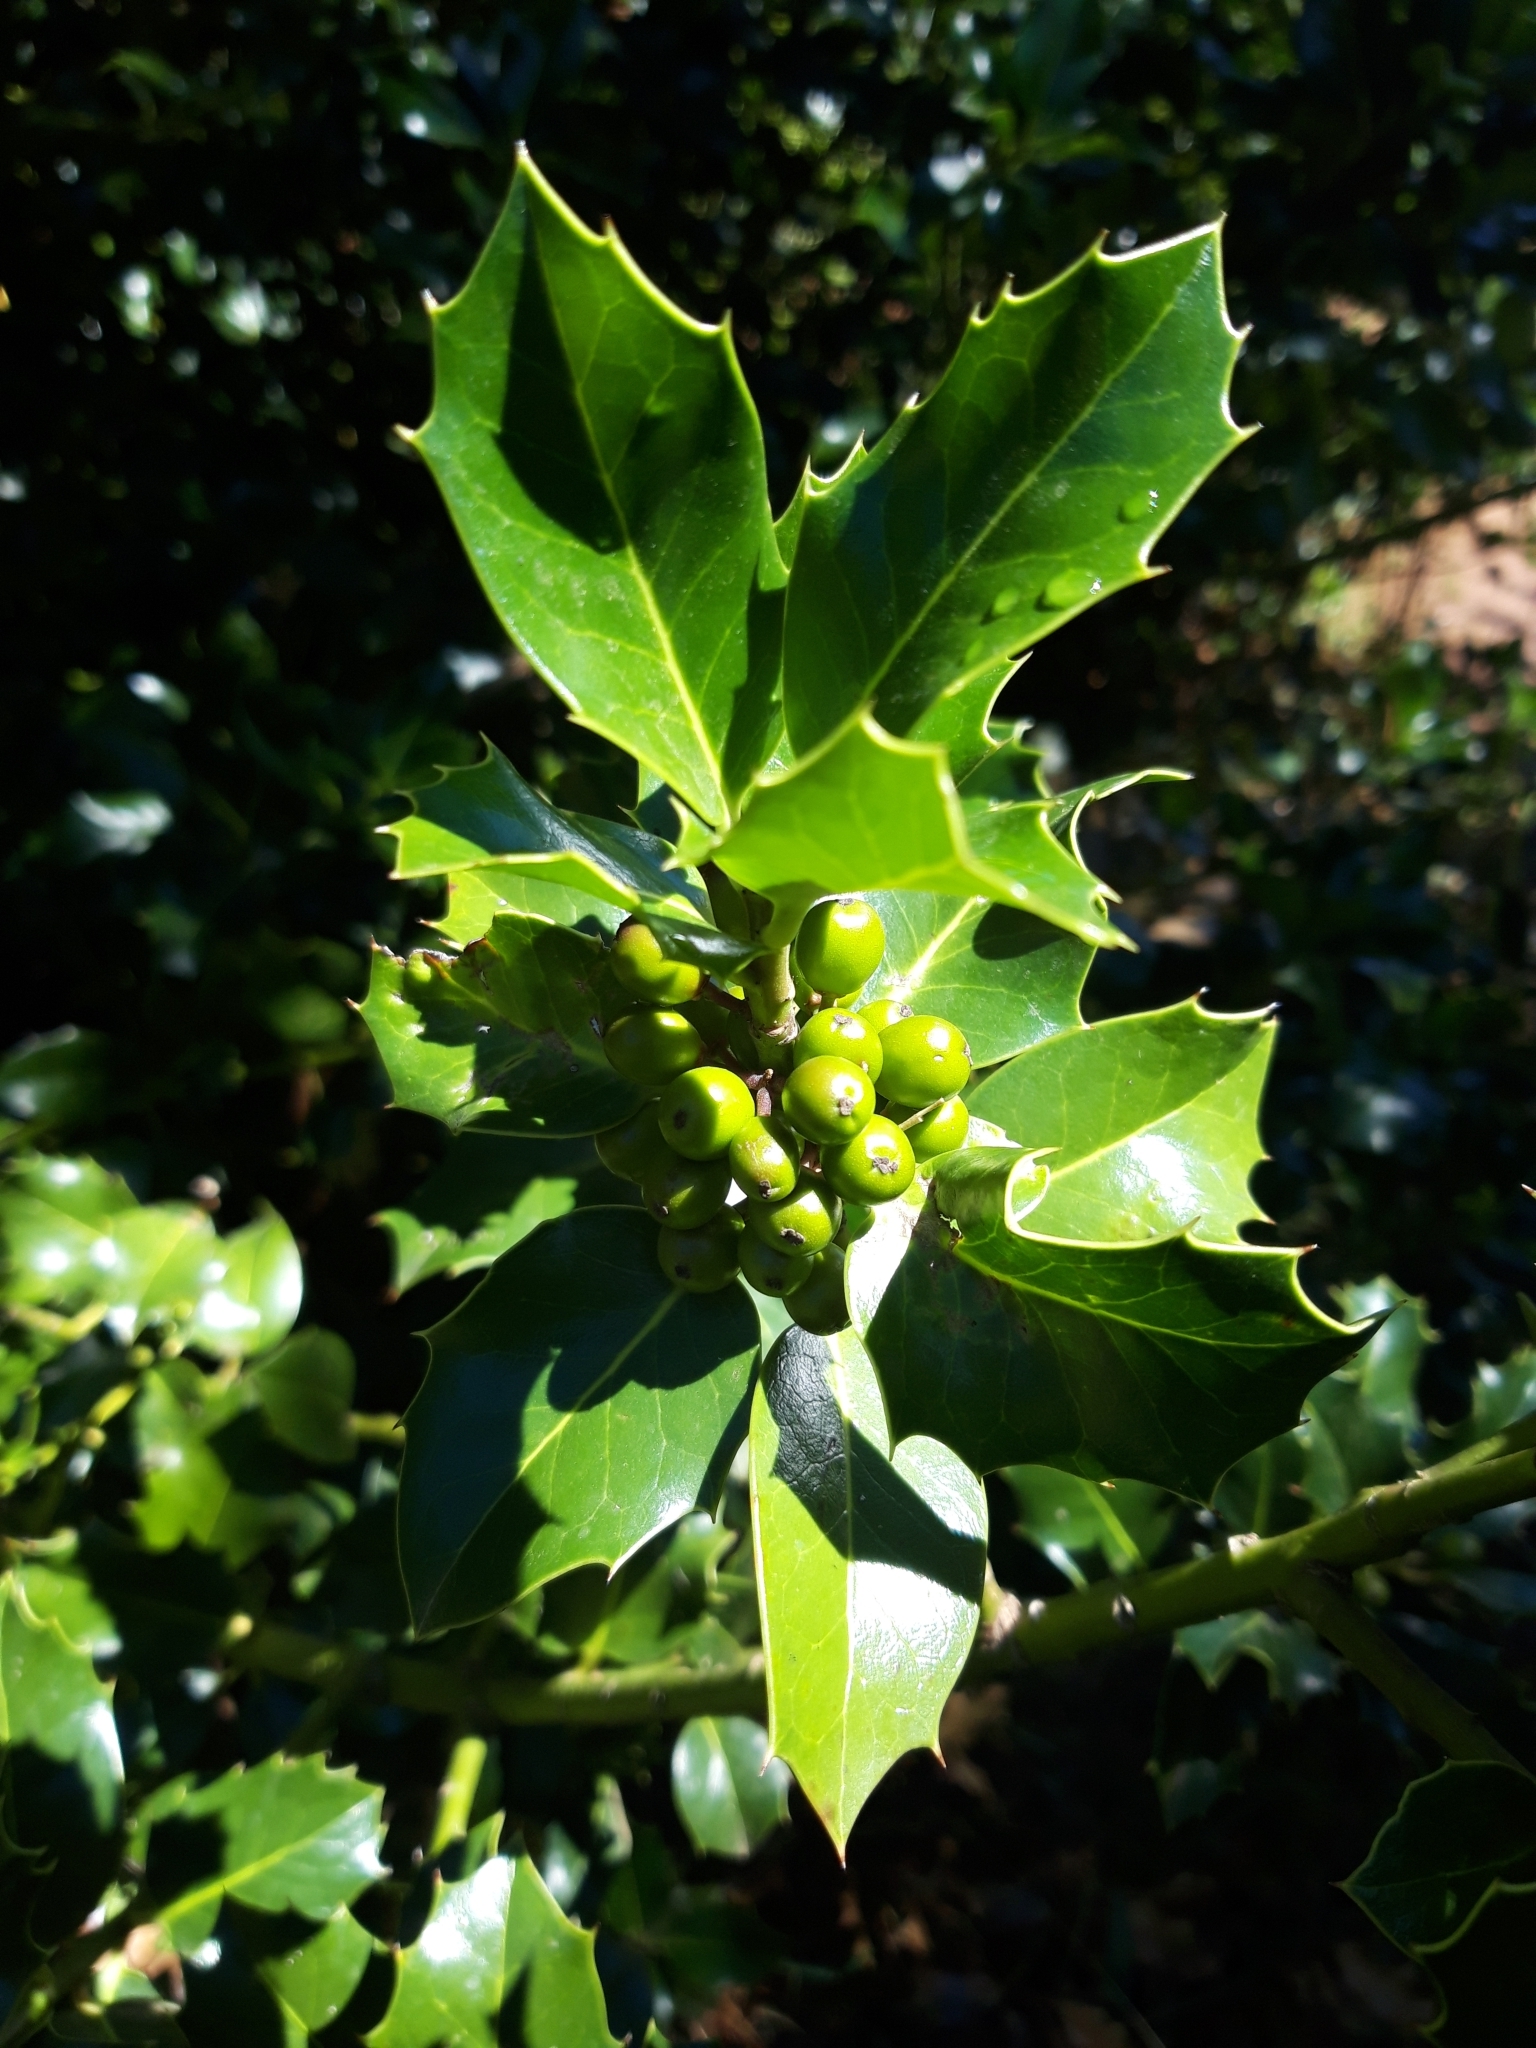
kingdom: Plantae
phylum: Tracheophyta
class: Magnoliopsida
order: Aquifoliales
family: Aquifoliaceae
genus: Ilex
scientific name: Ilex aquifolium
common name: English holly
